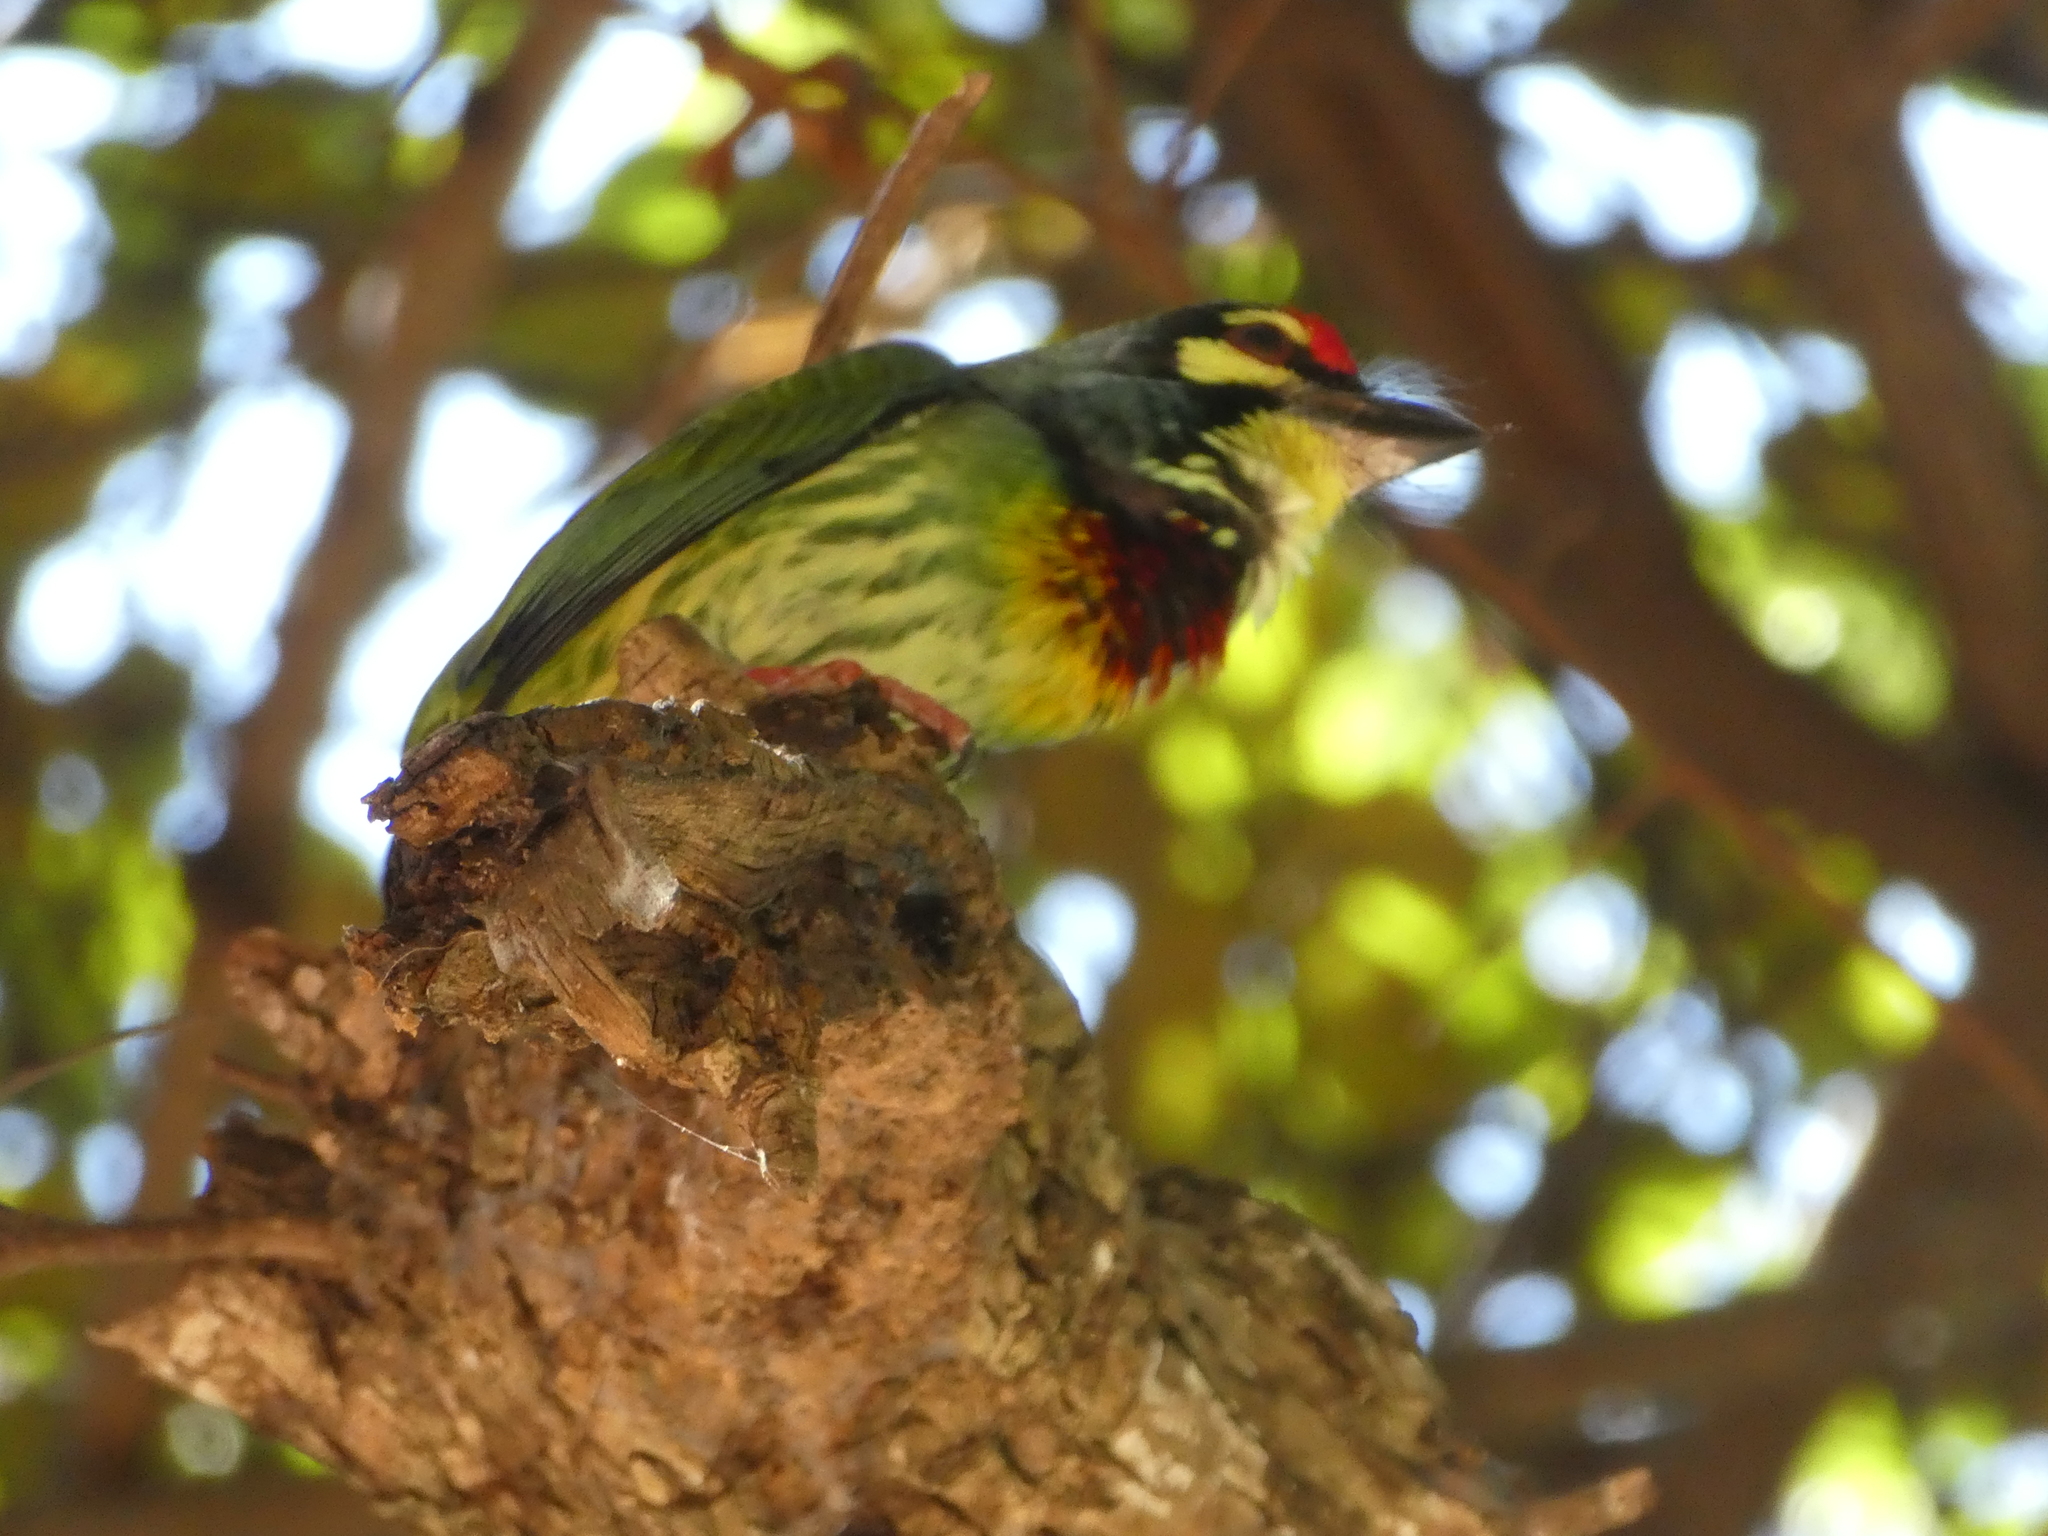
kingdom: Animalia
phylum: Chordata
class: Aves
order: Piciformes
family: Megalaimidae
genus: Psilopogon
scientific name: Psilopogon haemacephalus
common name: Coppersmith barbet
